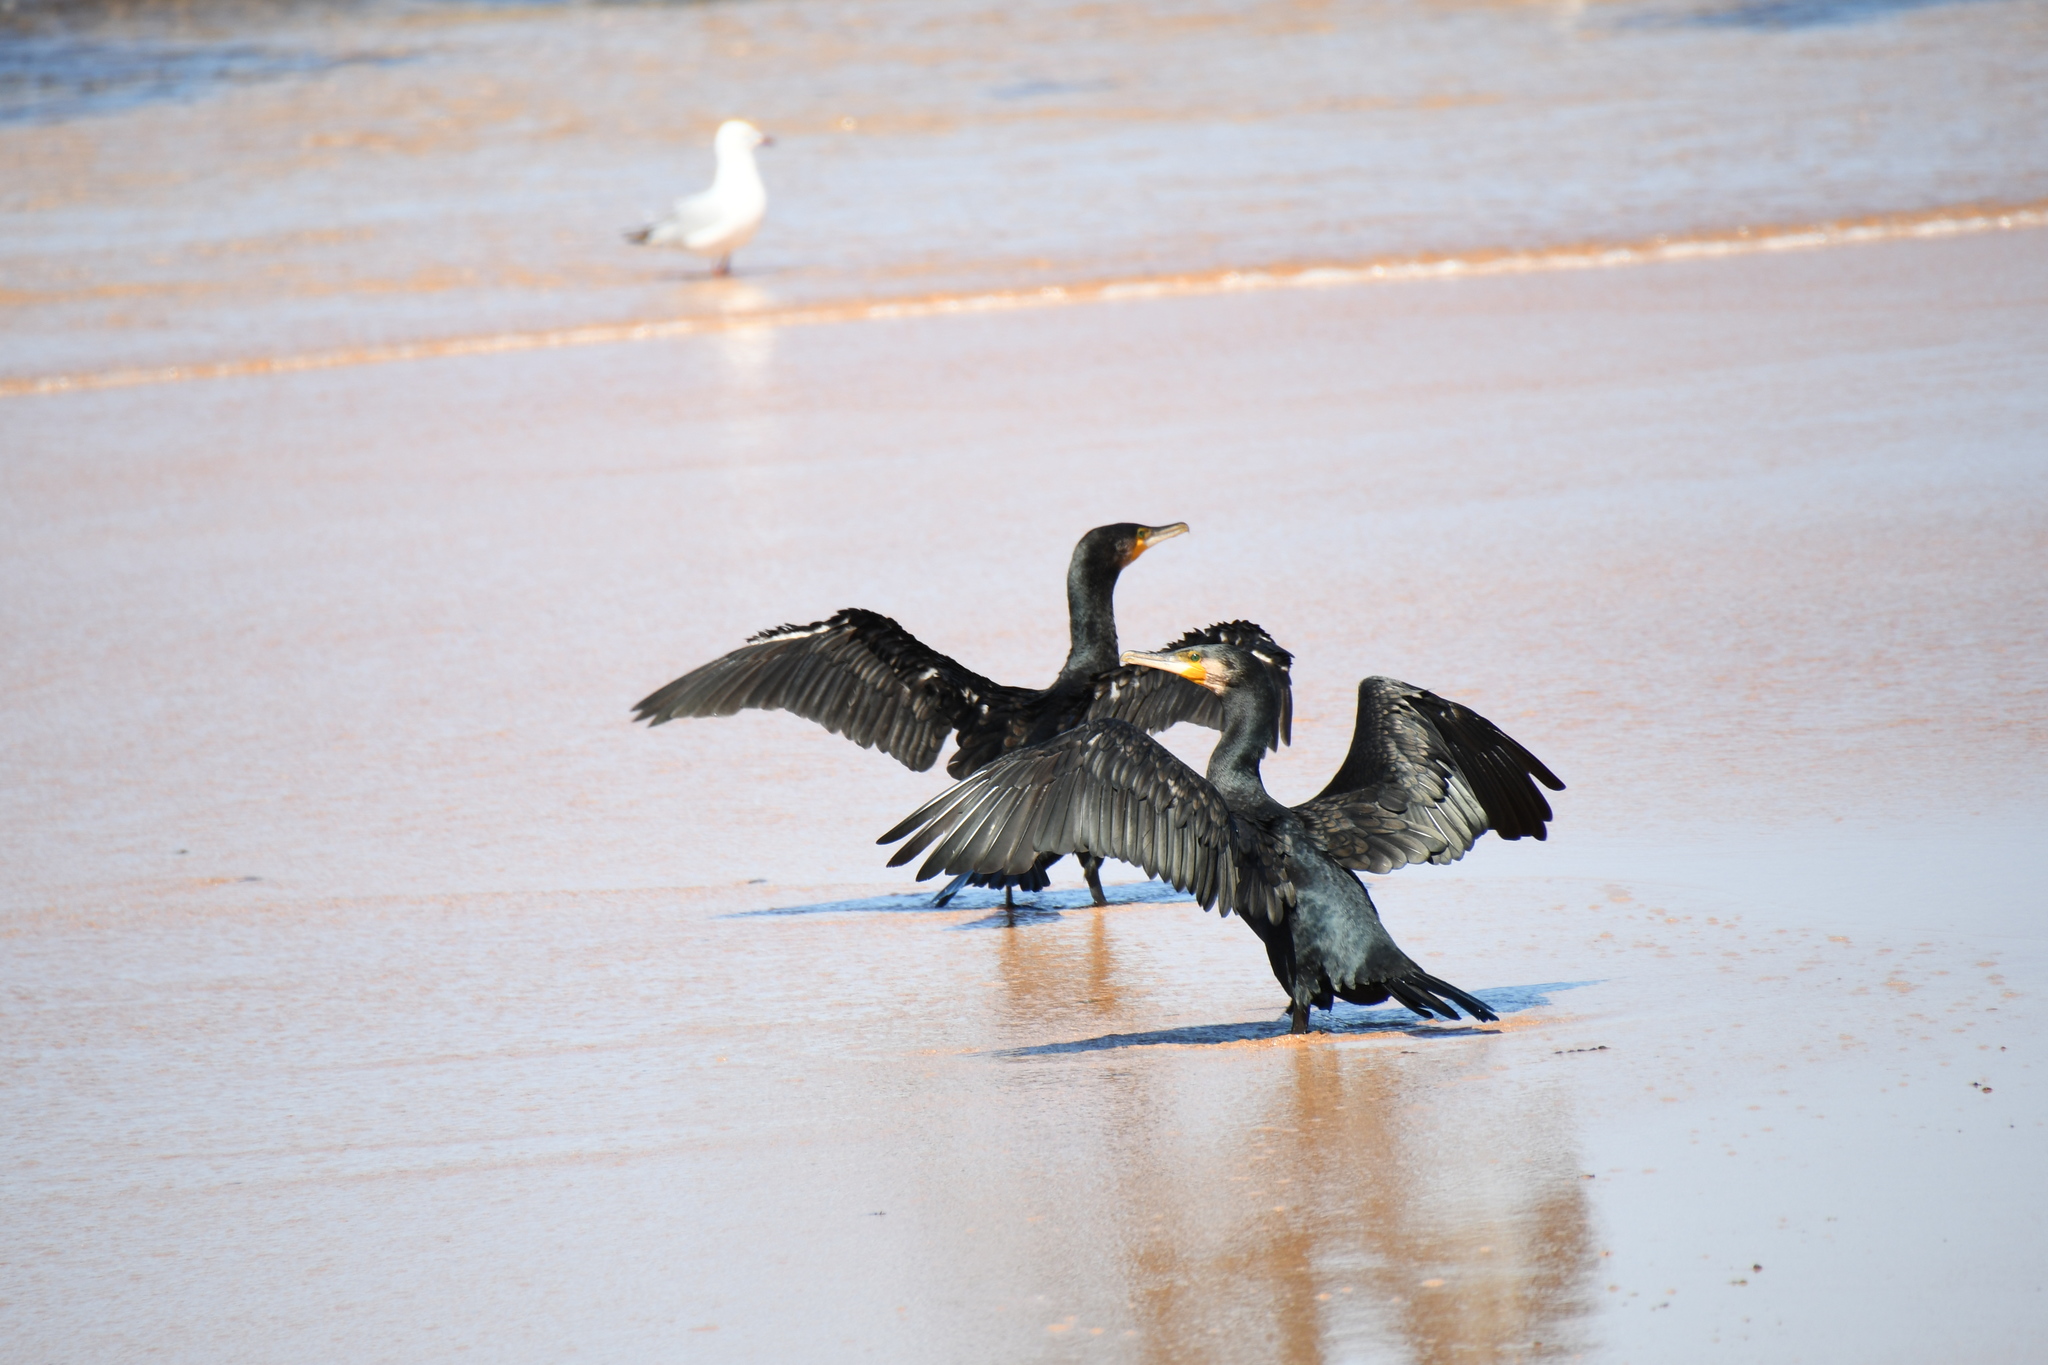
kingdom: Animalia
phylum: Chordata
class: Aves
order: Suliformes
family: Phalacrocoracidae
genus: Phalacrocorax
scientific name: Phalacrocorax carbo
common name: Great cormorant
